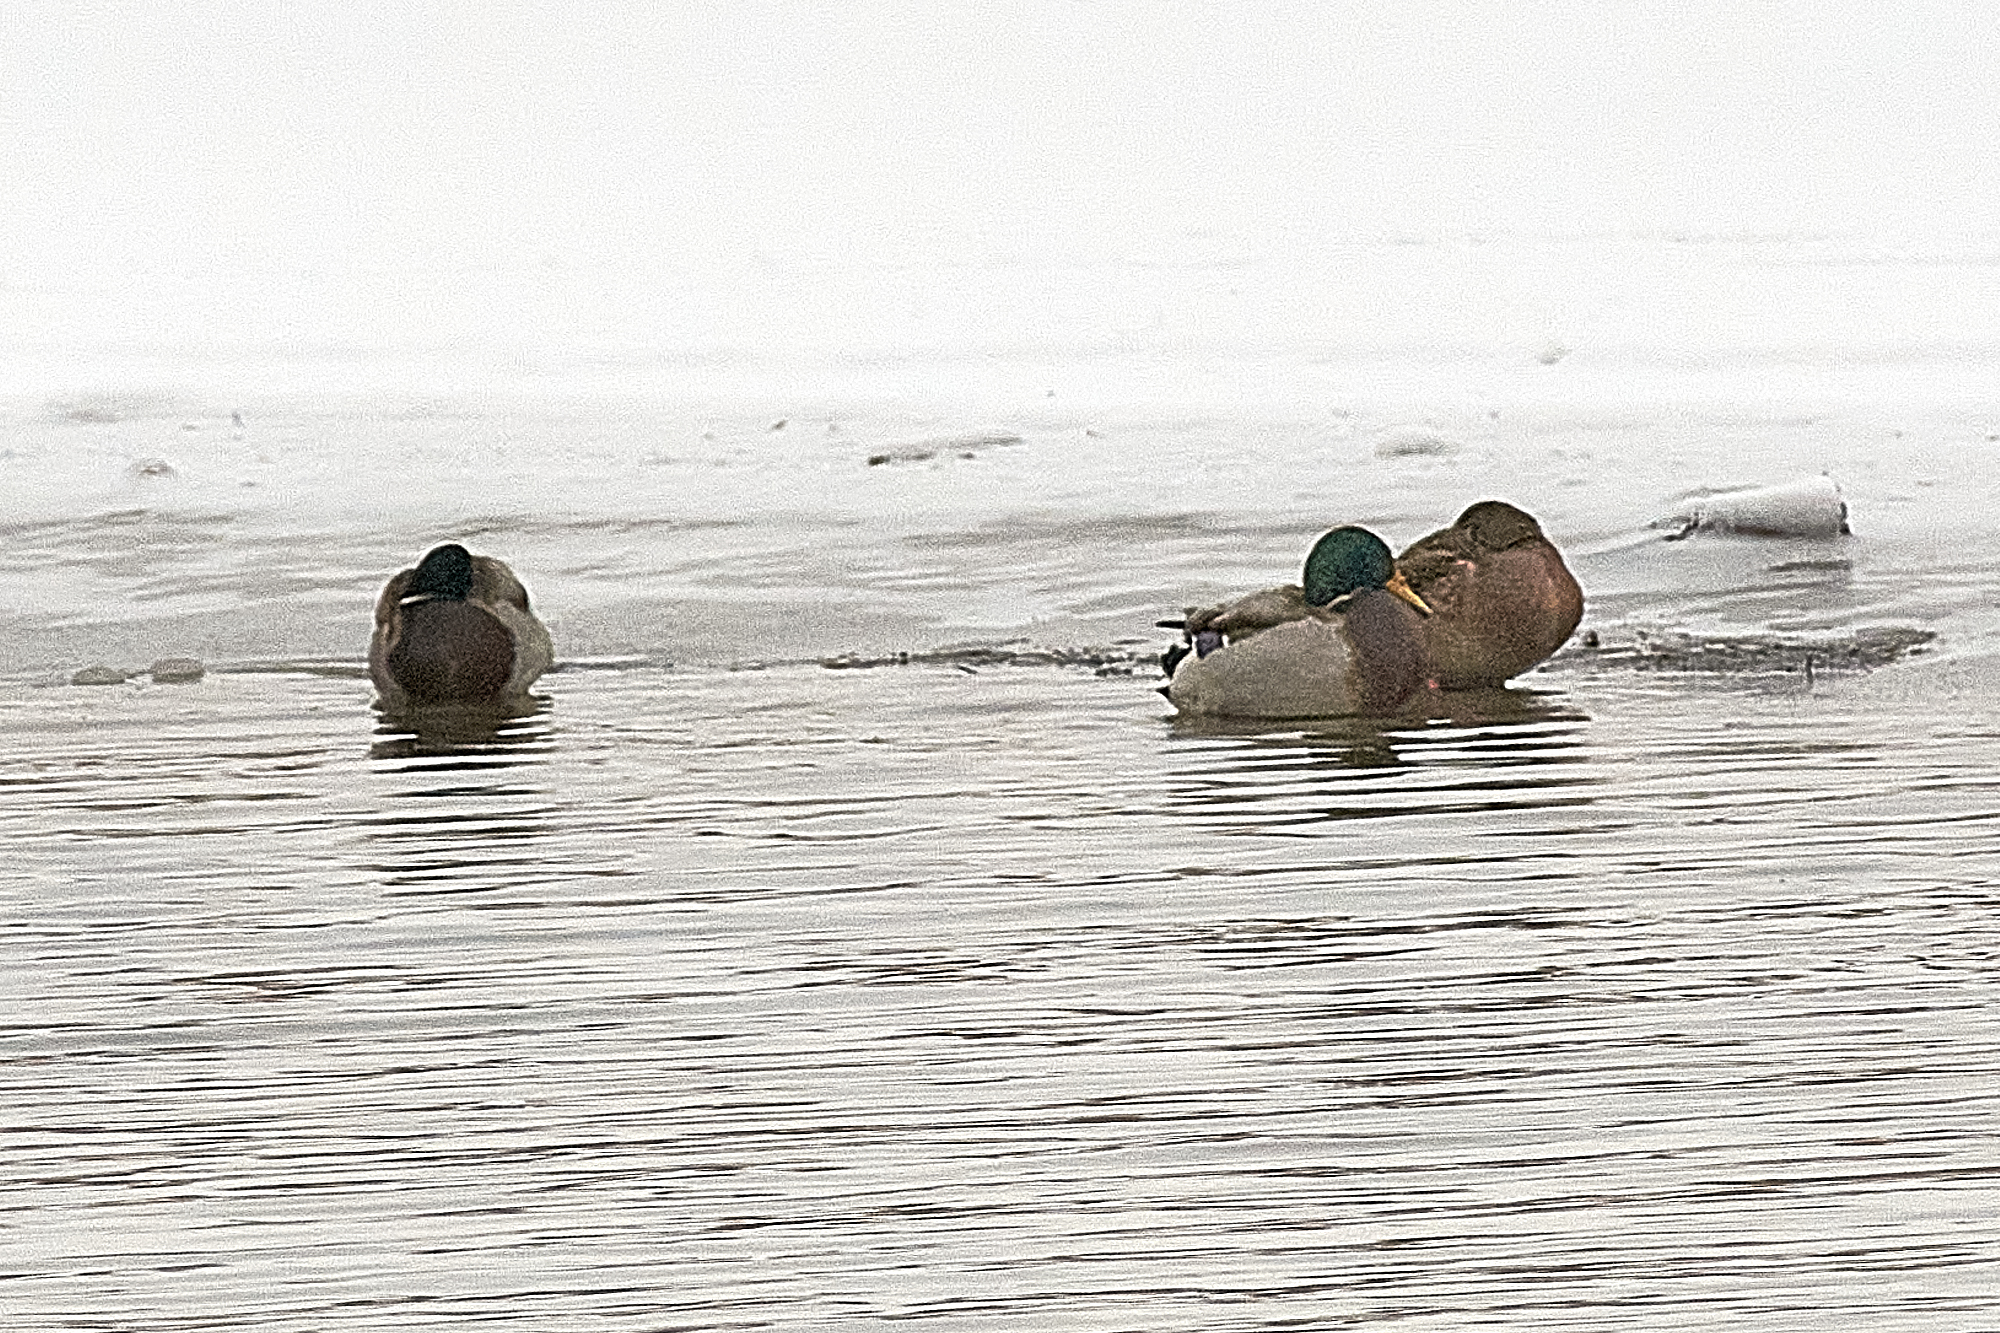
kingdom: Animalia
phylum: Chordata
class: Aves
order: Anseriformes
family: Anatidae
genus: Anas
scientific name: Anas platyrhynchos
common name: Mallard
